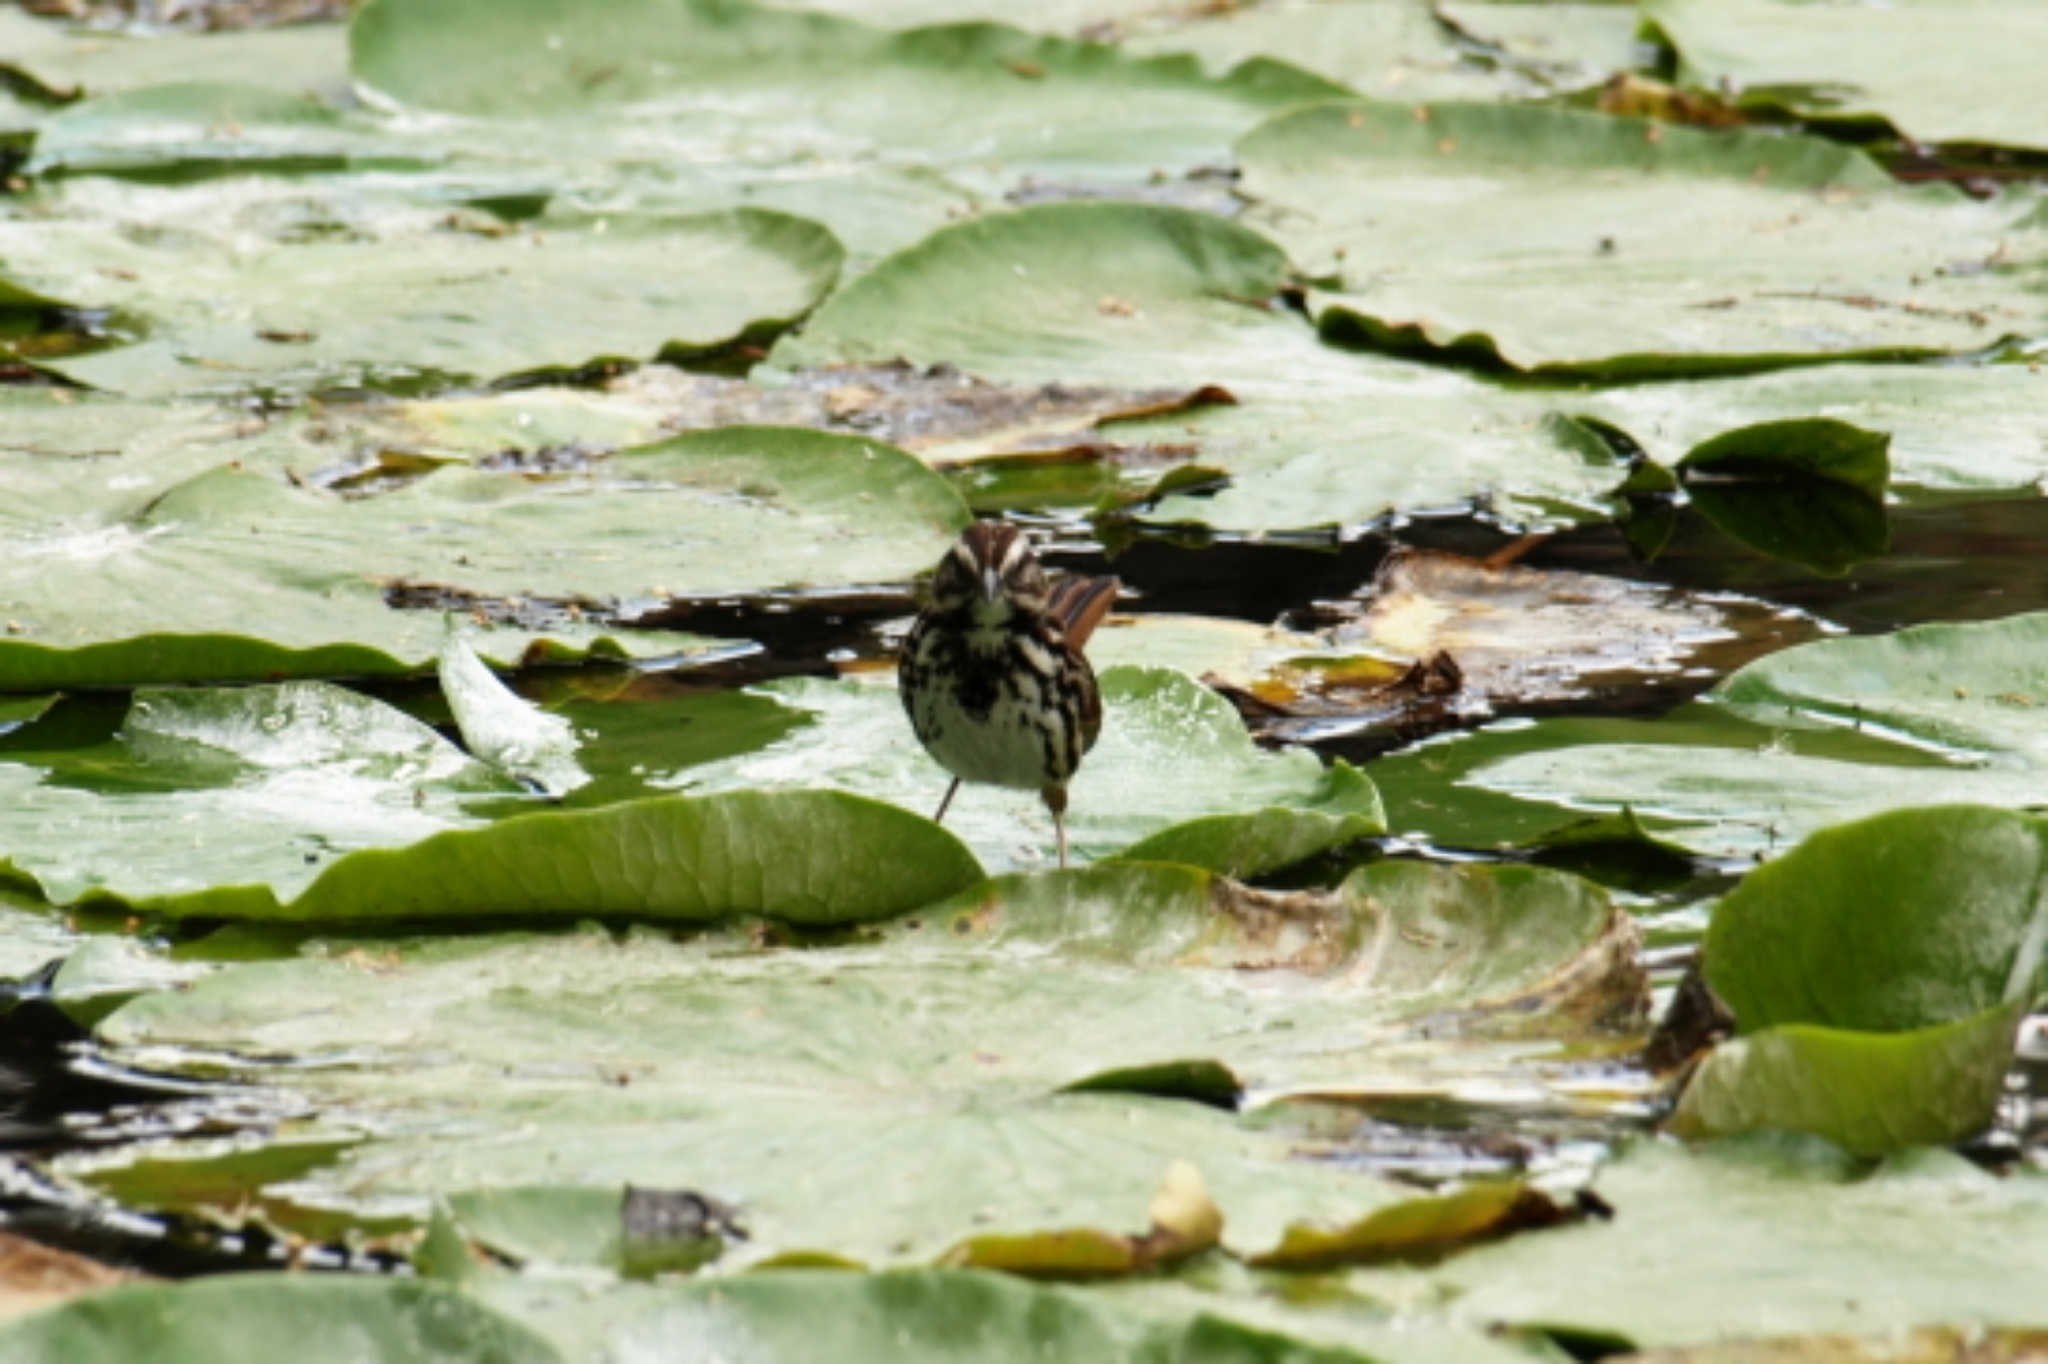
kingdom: Animalia
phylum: Chordata
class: Aves
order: Passeriformes
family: Passerellidae
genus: Melospiza
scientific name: Melospiza melodia
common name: Song sparrow
